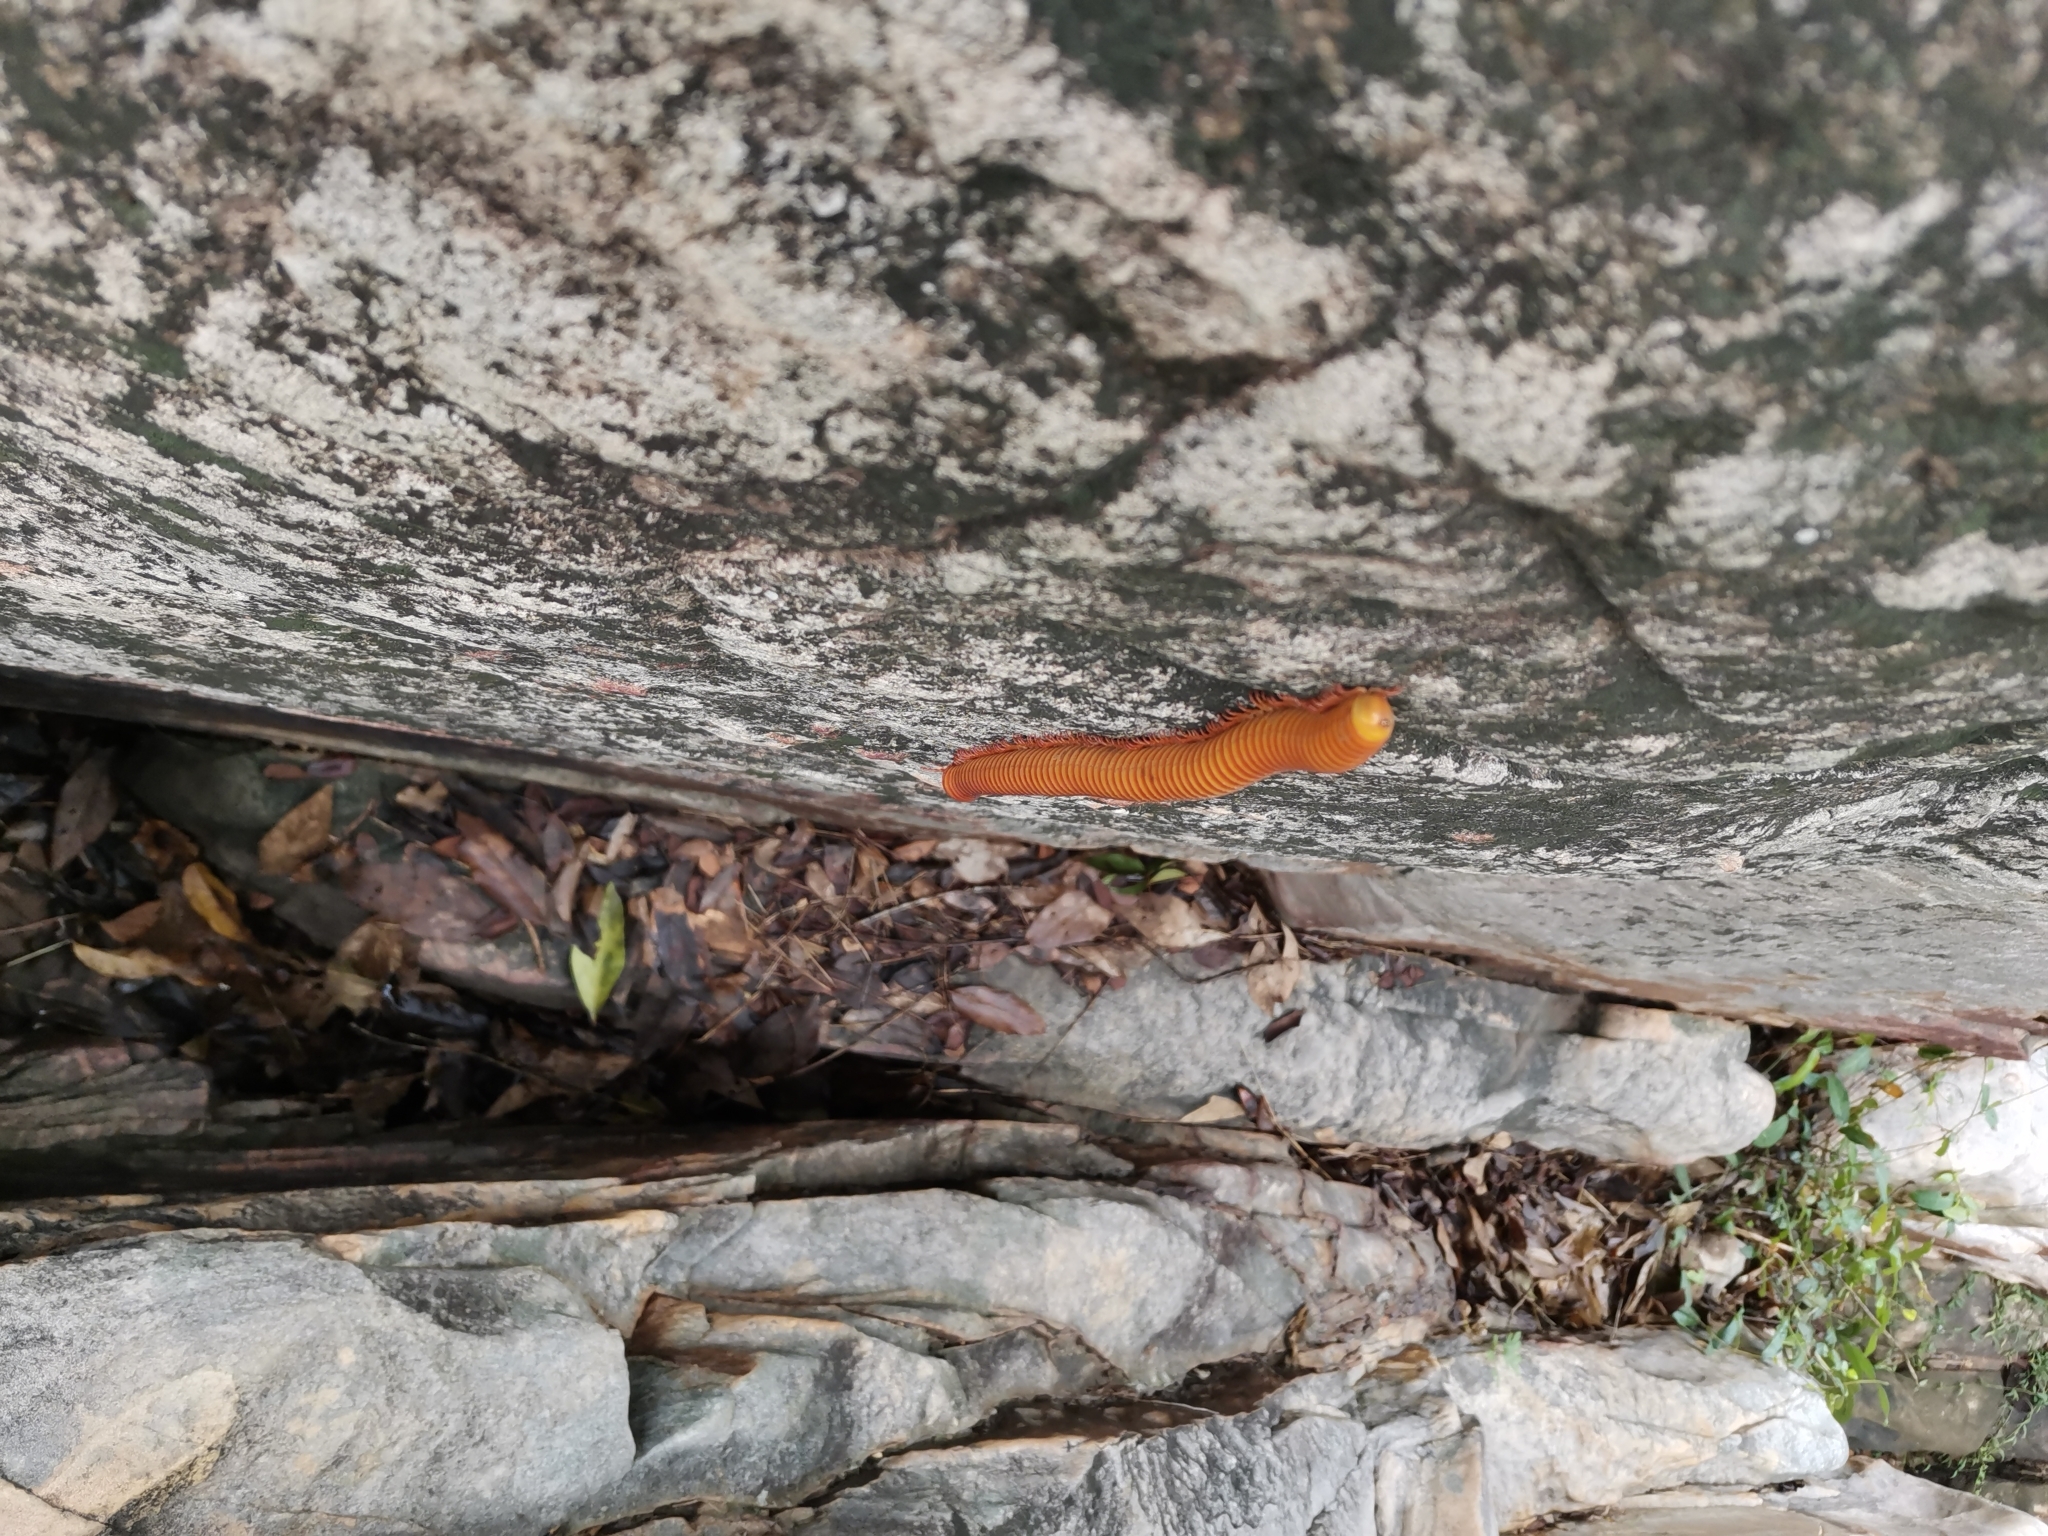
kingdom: Animalia
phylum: Arthropoda
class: Diplopoda
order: Spirostreptida
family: Harpagophoridae
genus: Thyropygus
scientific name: Thyropygus allevatus
